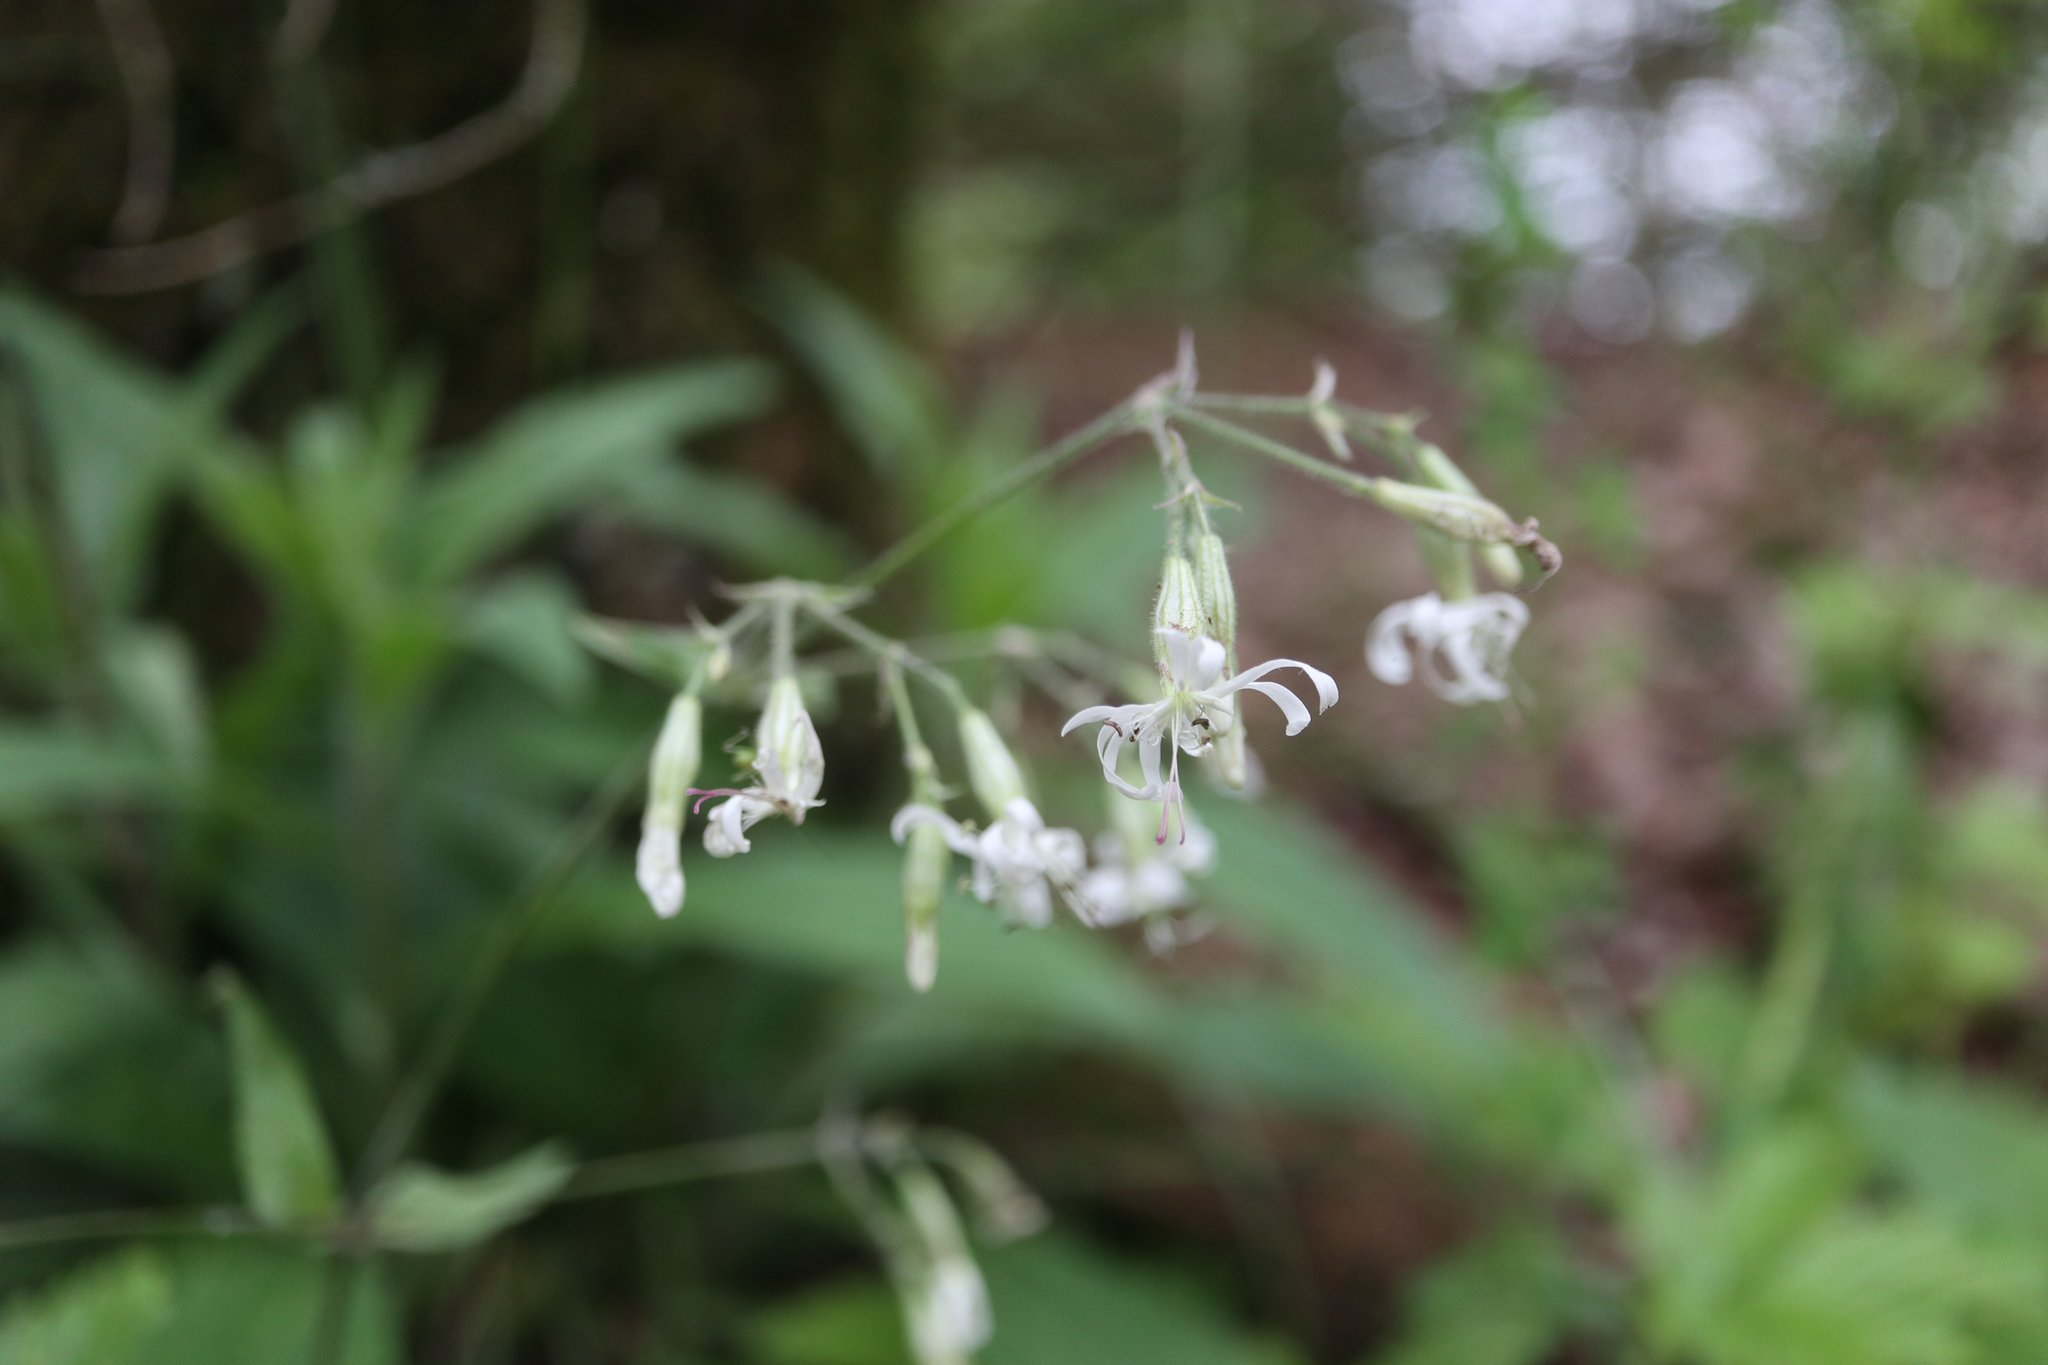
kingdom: Plantae
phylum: Tracheophyta
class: Magnoliopsida
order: Caryophyllales
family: Caryophyllaceae
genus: Silene
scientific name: Silene nutans
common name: Nottingham catchfly
